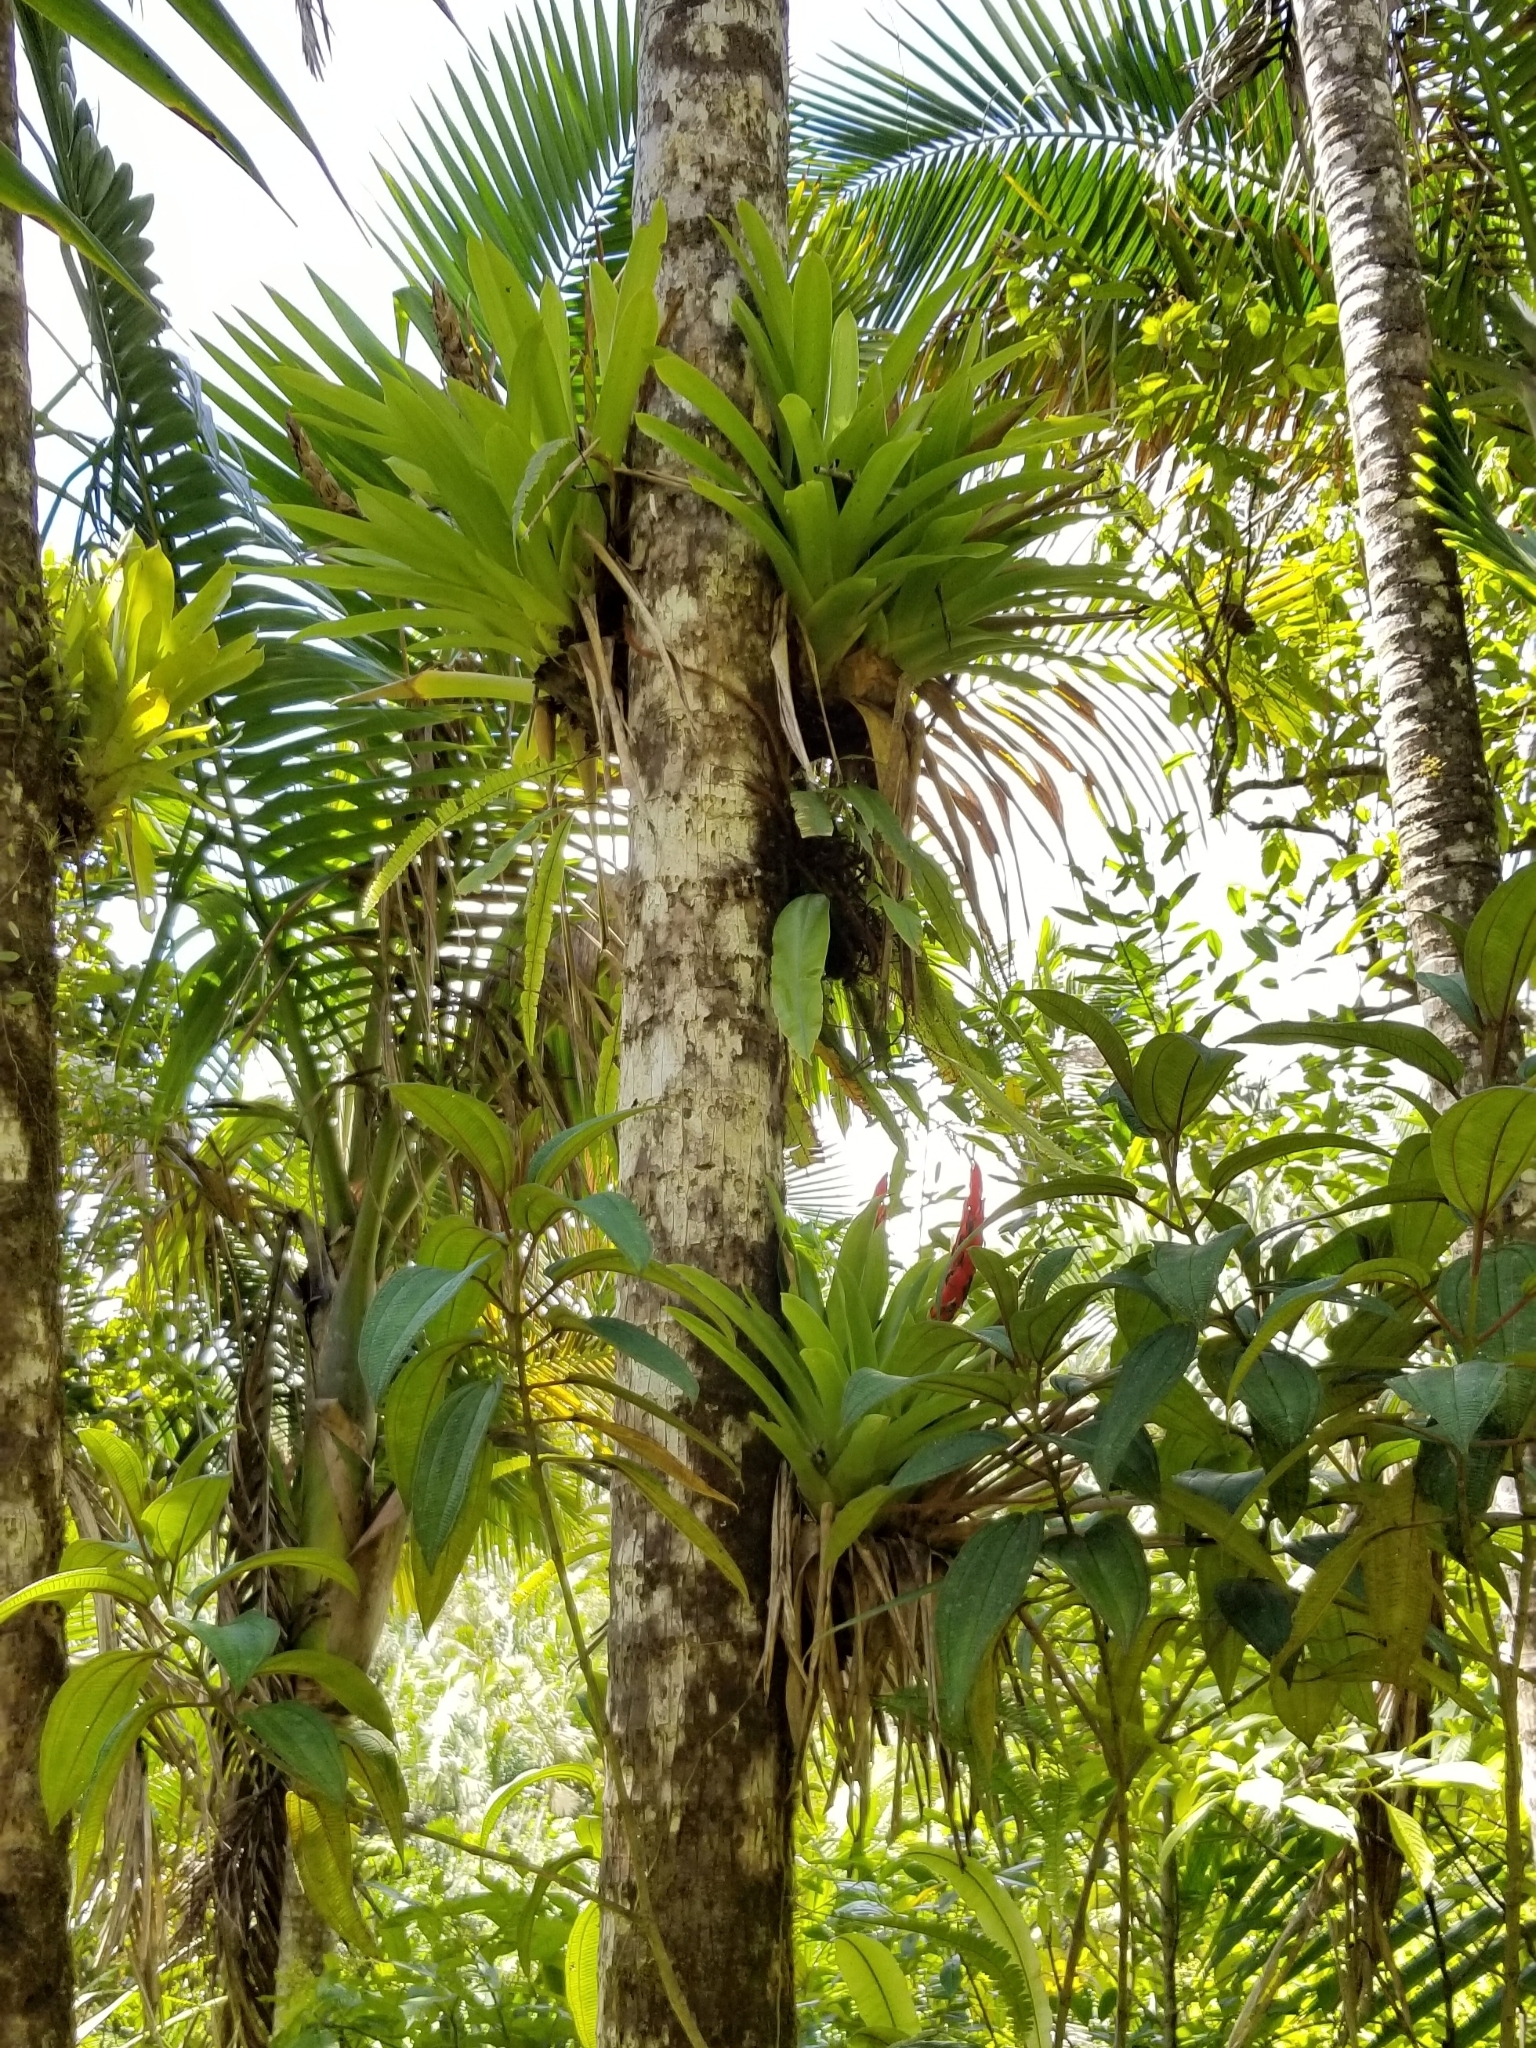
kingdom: Plantae
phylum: Tracheophyta
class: Liliopsida
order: Poales
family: Bromeliaceae
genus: Guzmania
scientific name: Guzmania berteroniana
